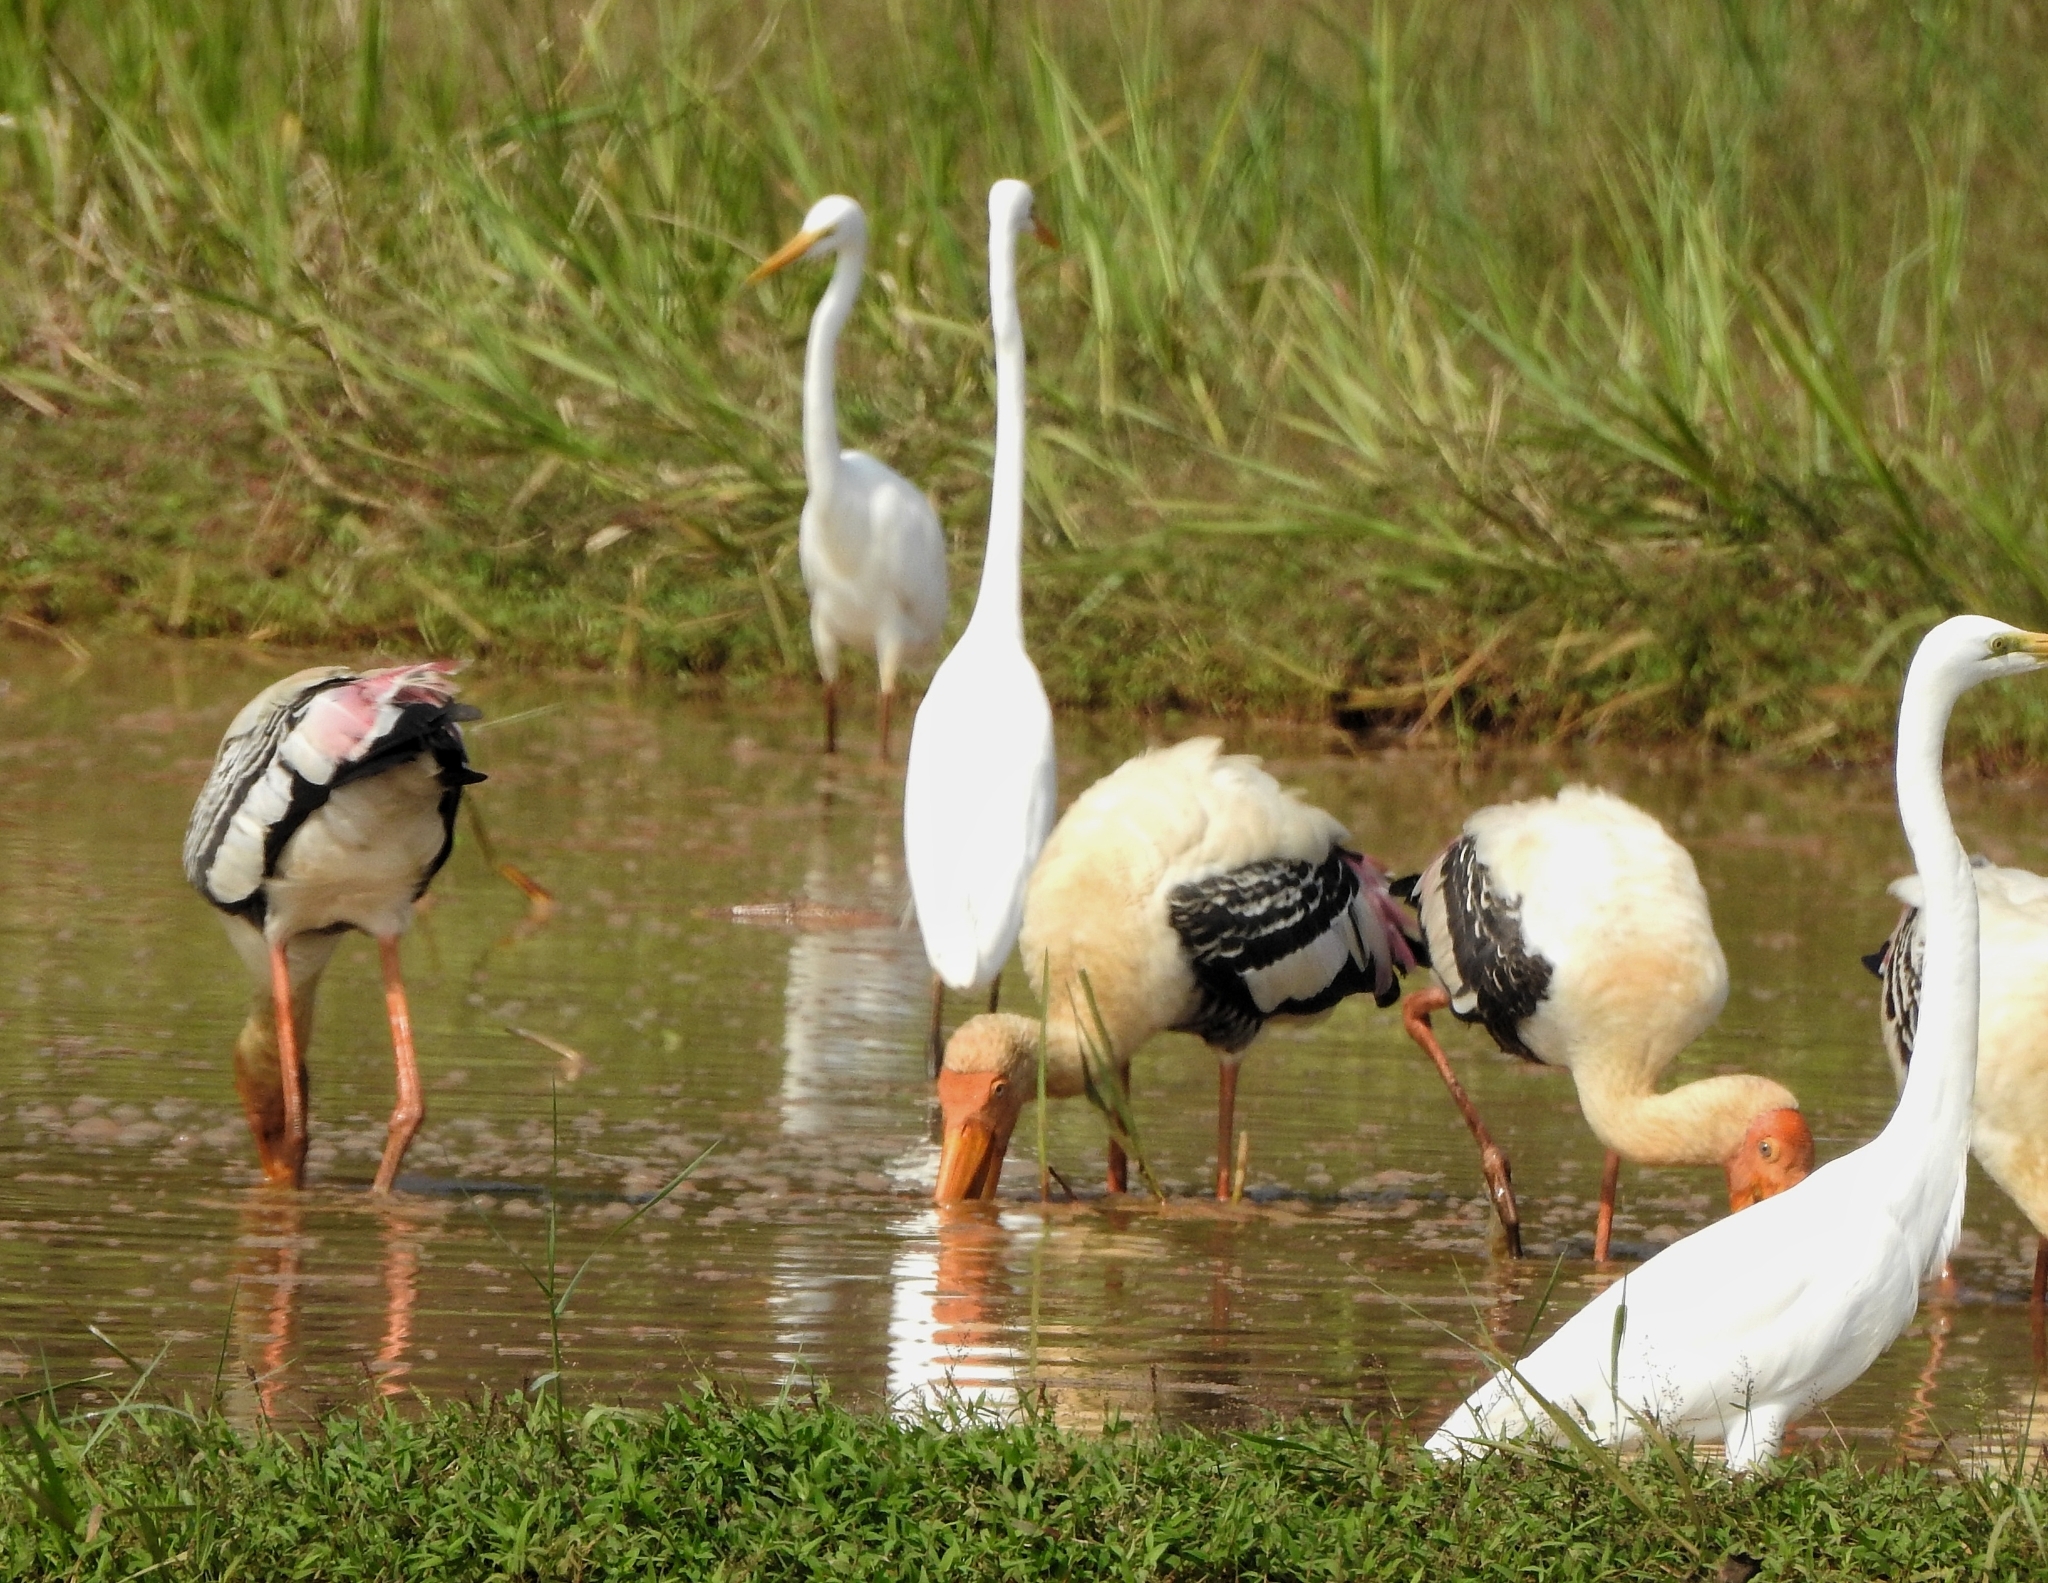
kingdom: Animalia
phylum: Chordata
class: Aves
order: Ciconiiformes
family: Ciconiidae
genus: Mycteria
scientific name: Mycteria leucocephala
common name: Painted stork
